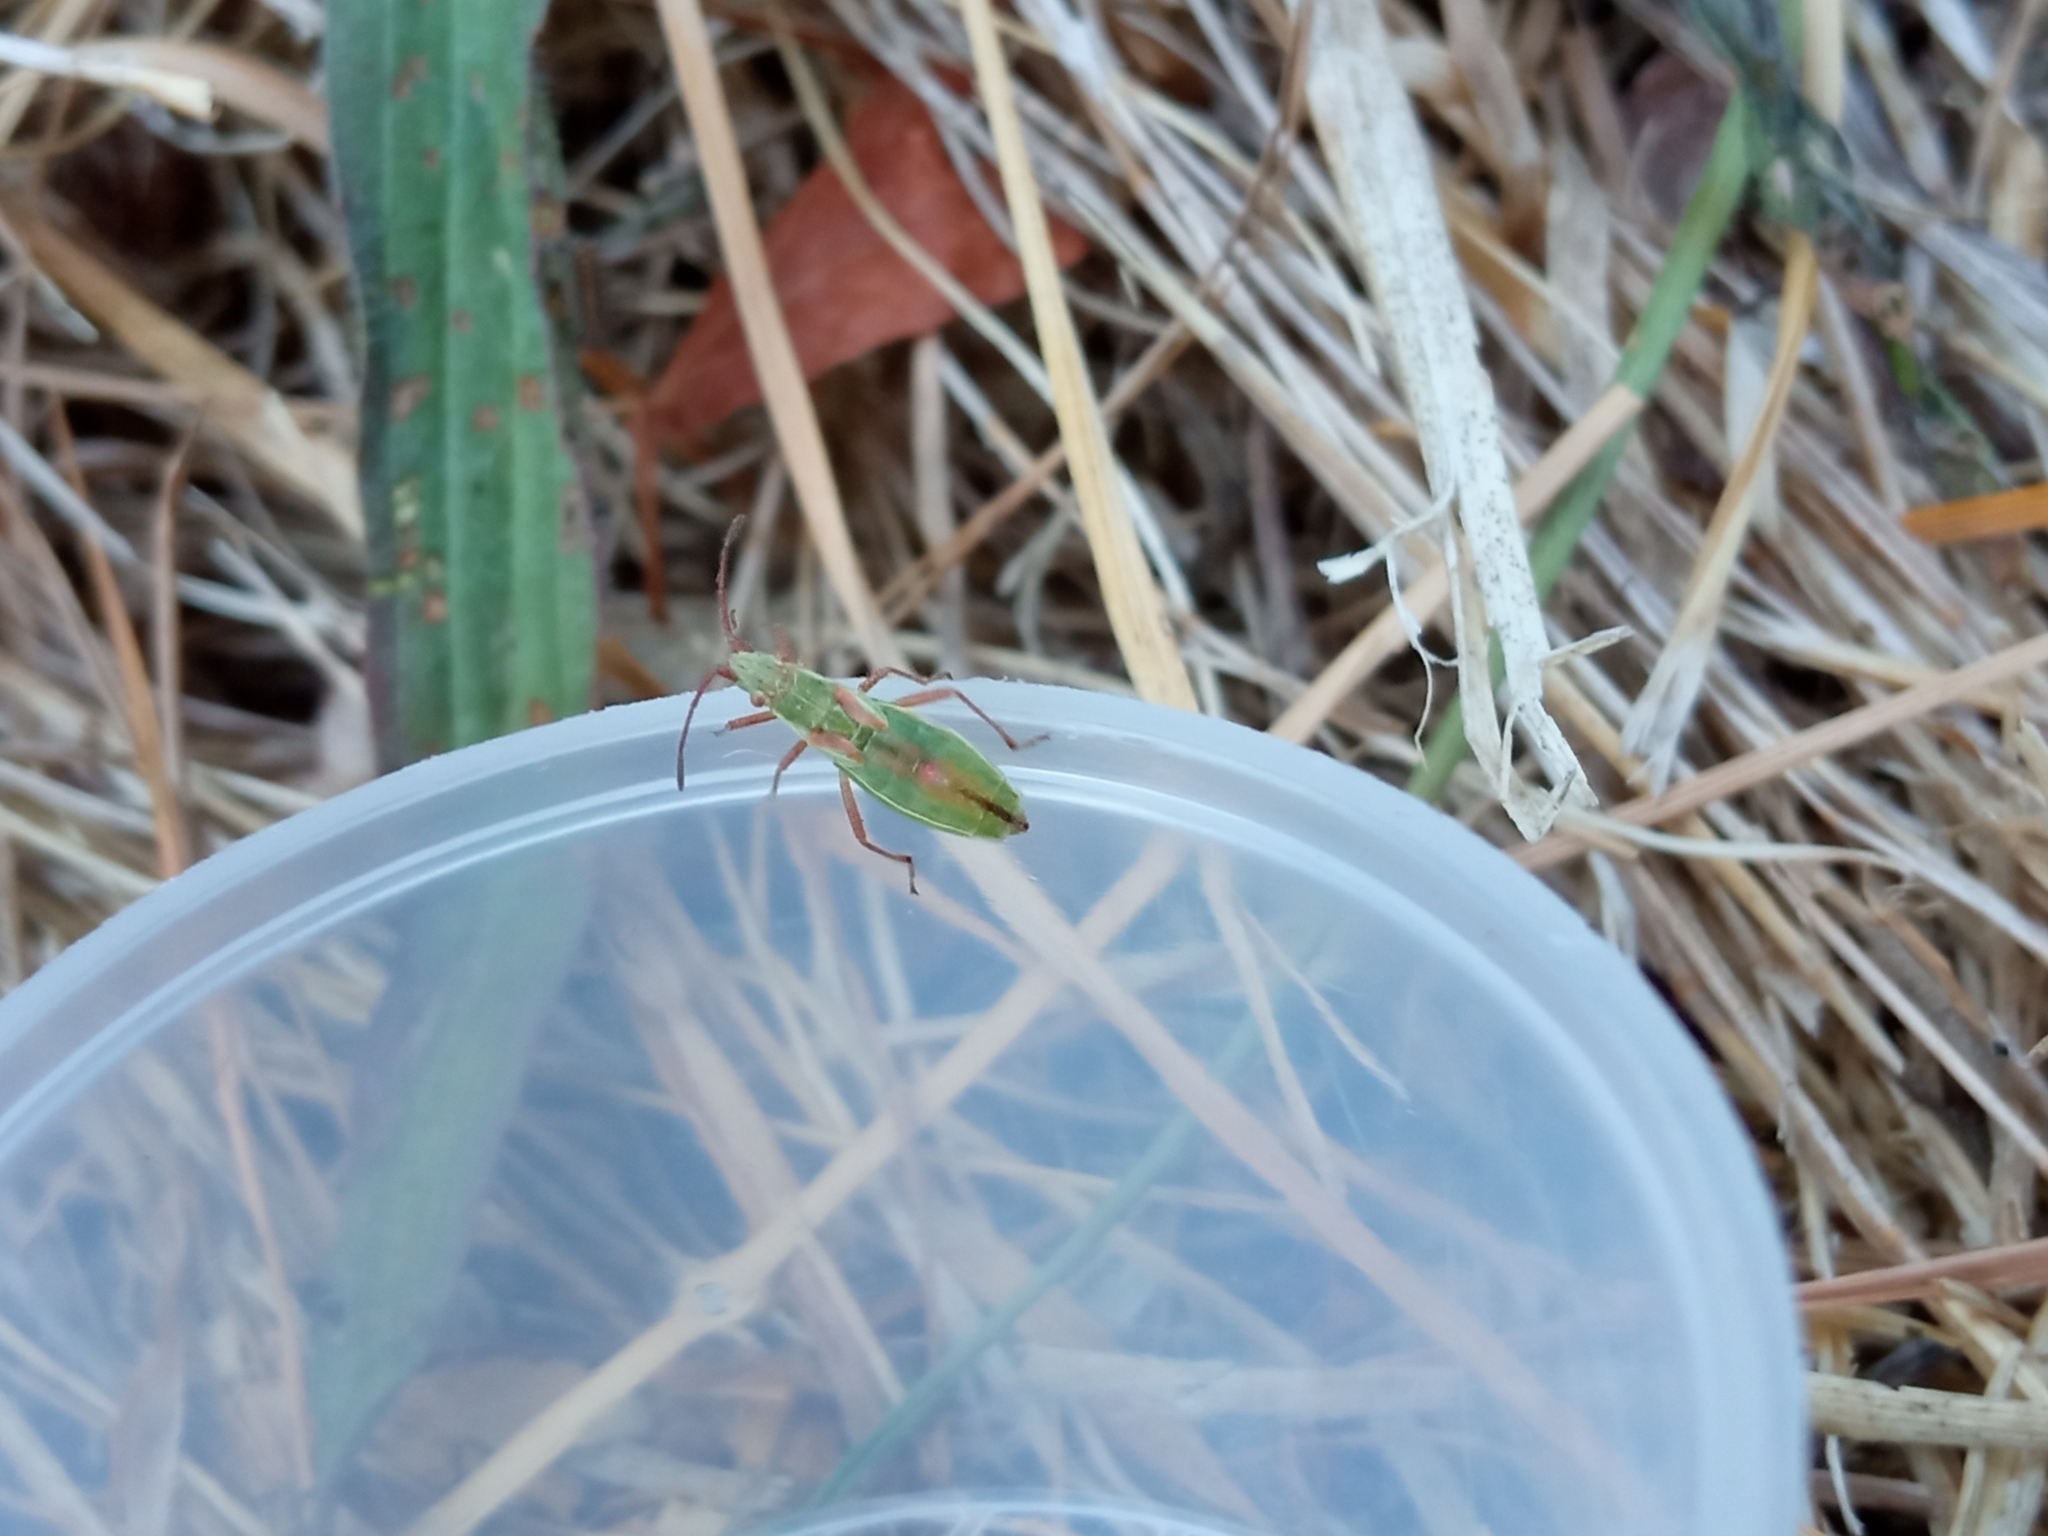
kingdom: Animalia
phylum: Arthropoda
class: Insecta
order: Hemiptera
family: Rhopalidae
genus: Myrmus
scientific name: Myrmus miriformis
